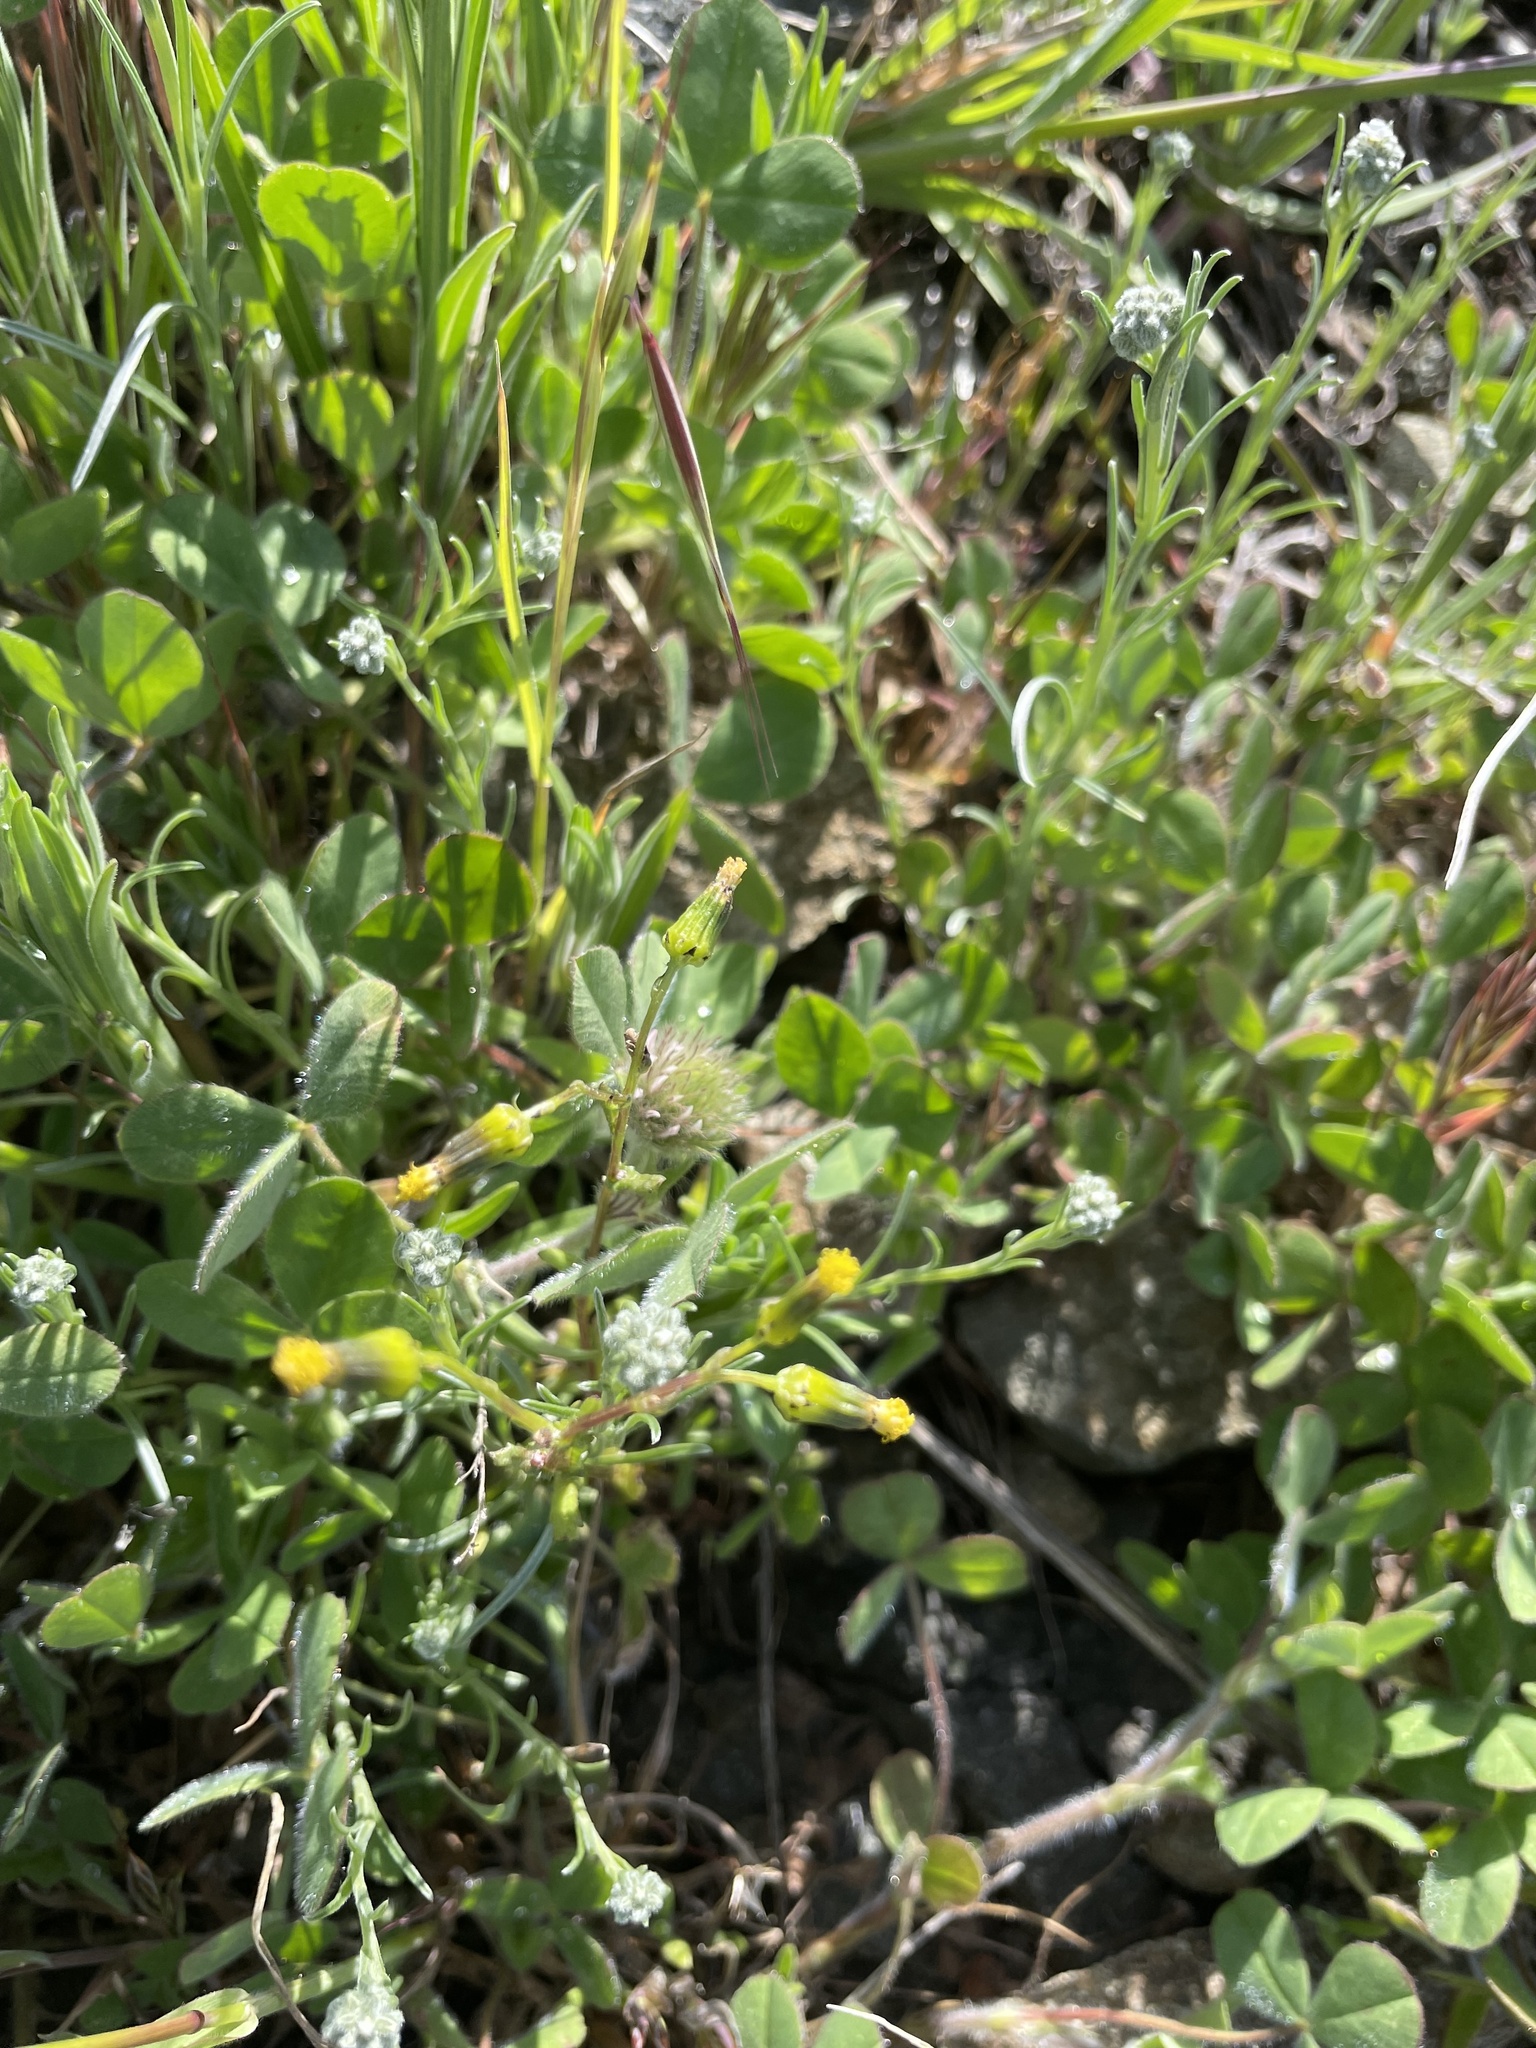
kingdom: Plantae
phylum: Tracheophyta
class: Magnoliopsida
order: Asterales
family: Asteraceae
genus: Senecio
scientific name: Senecio vulgaris
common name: Old-man-in-the-spring
